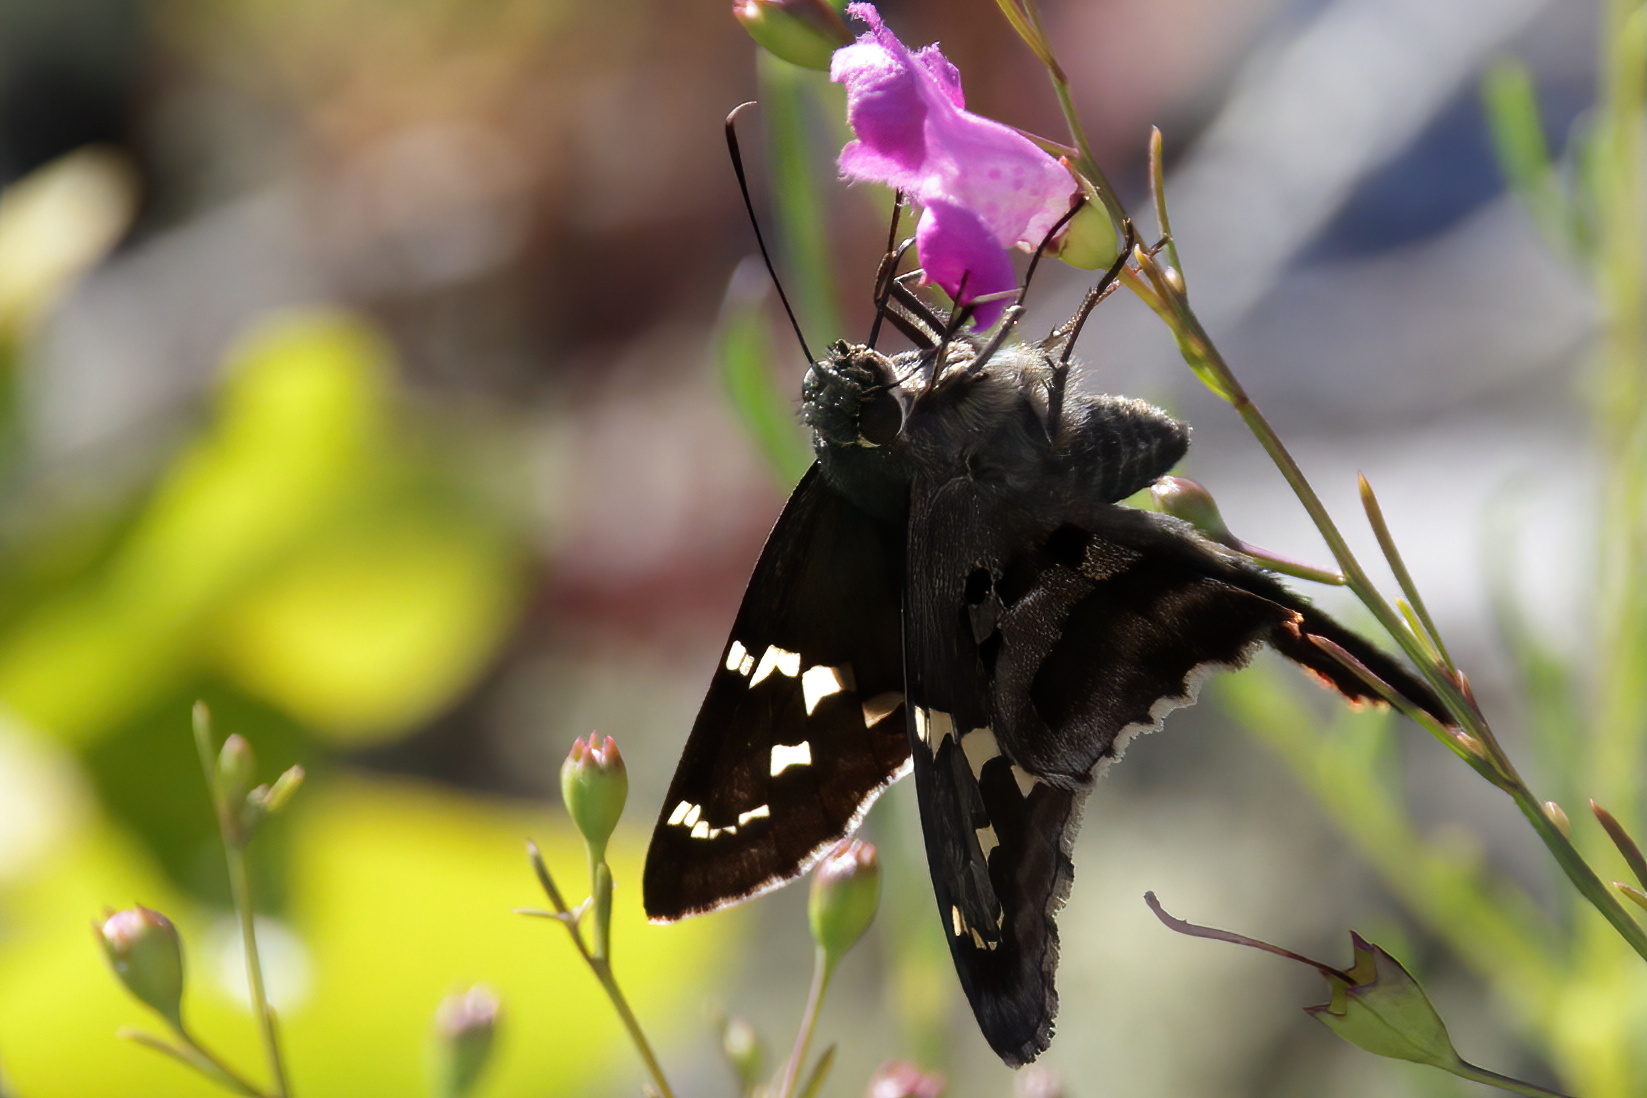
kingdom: Animalia
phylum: Arthropoda
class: Insecta
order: Lepidoptera
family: Hesperiidae
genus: Urbanus
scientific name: Urbanus proteus
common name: Long-tailed skipper
